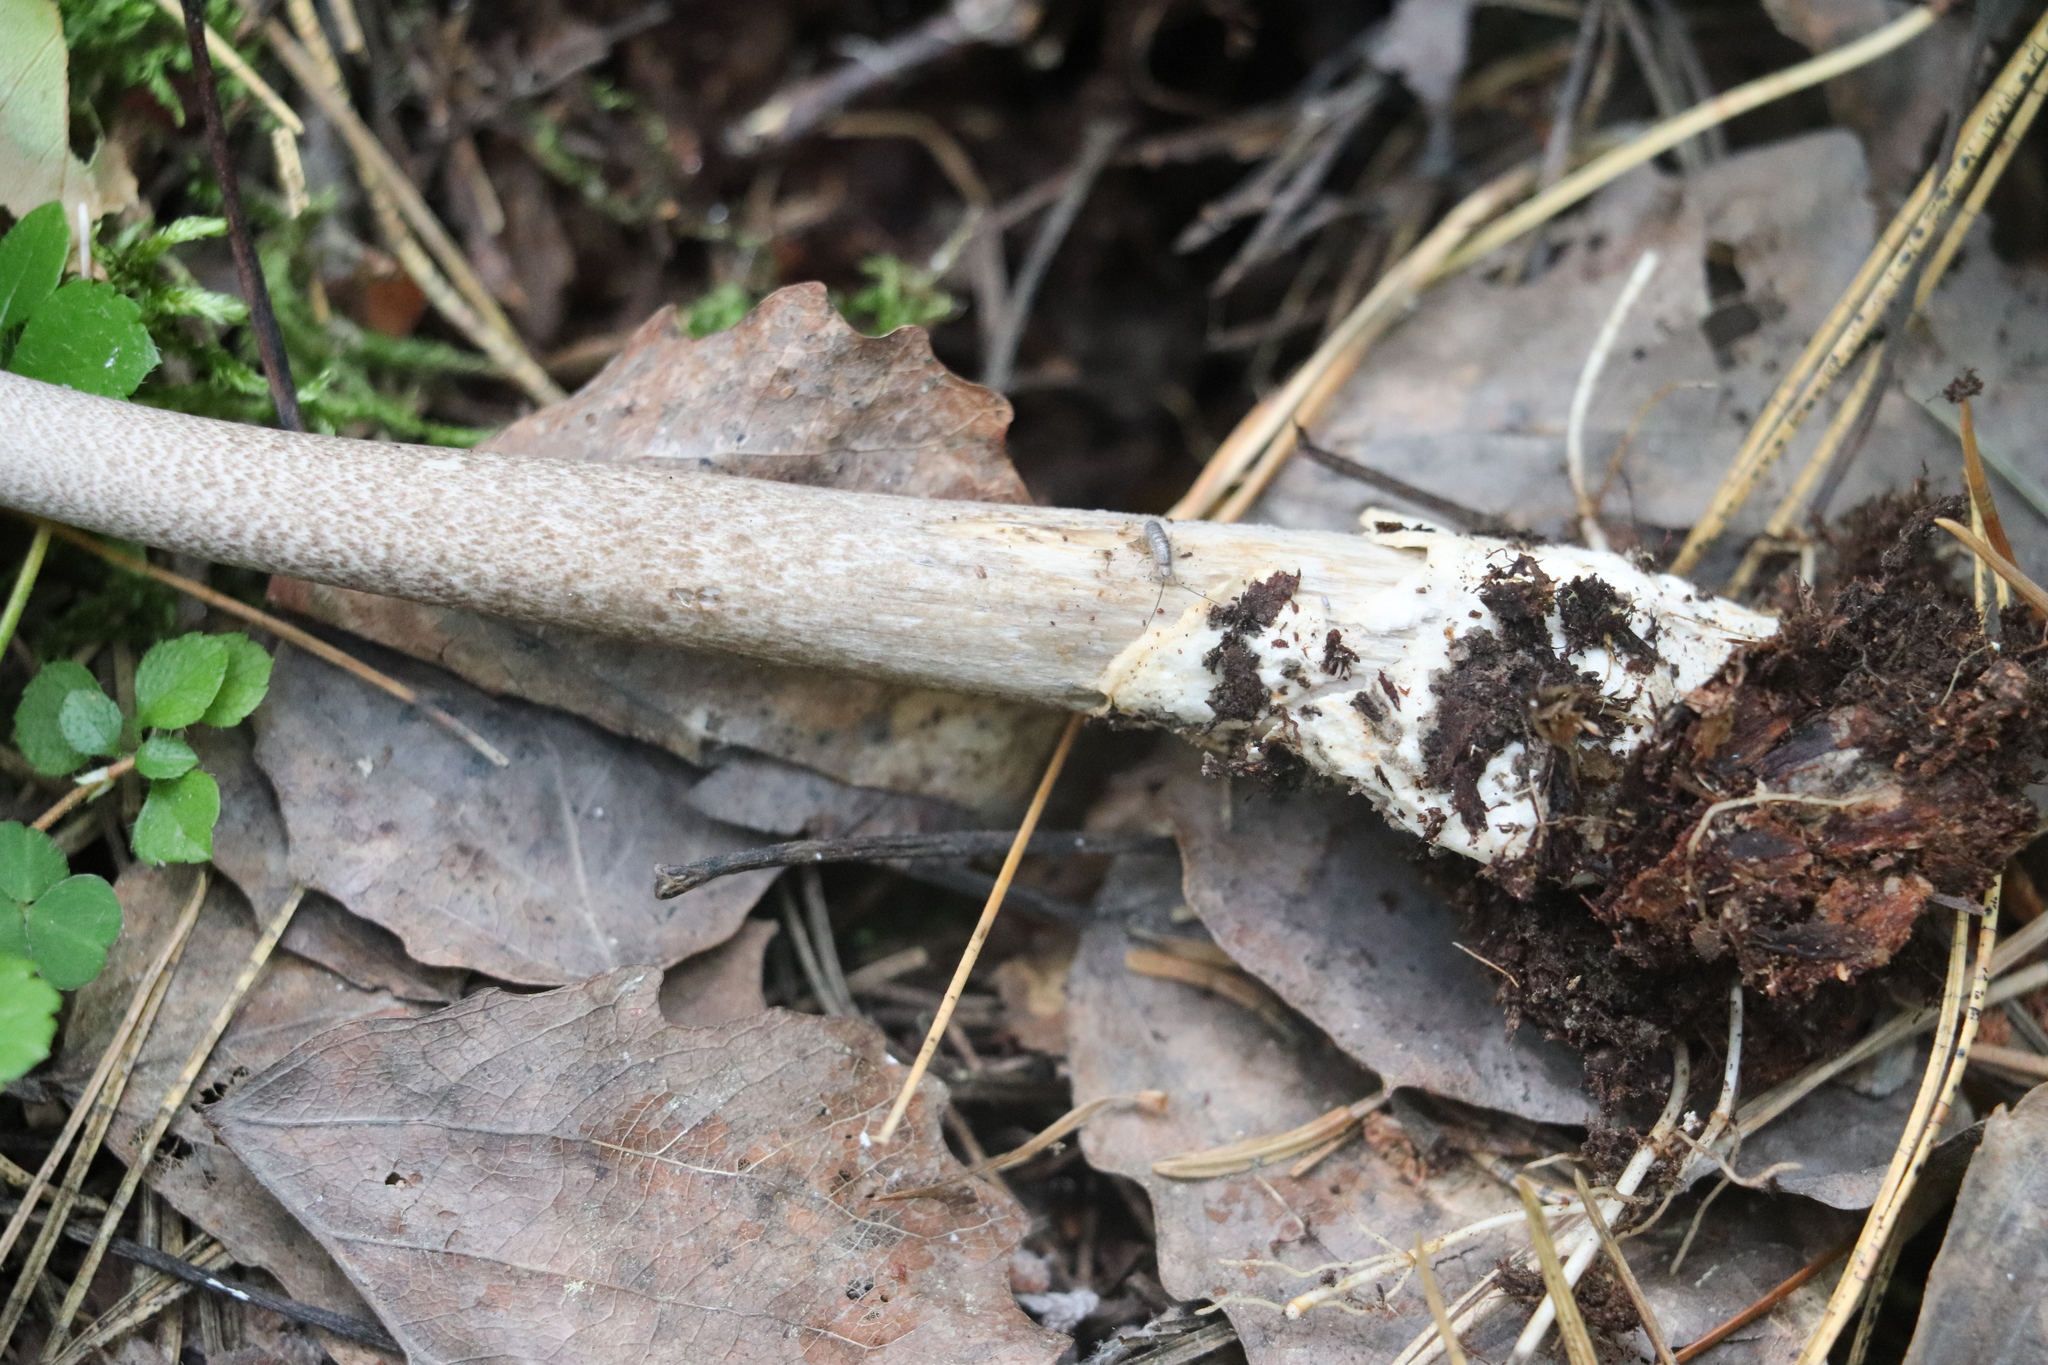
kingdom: Fungi
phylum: Basidiomycota
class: Agaricomycetes
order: Agaricales
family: Amanitaceae
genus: Amanita
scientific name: Amanita battarrae
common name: Banded amanita
